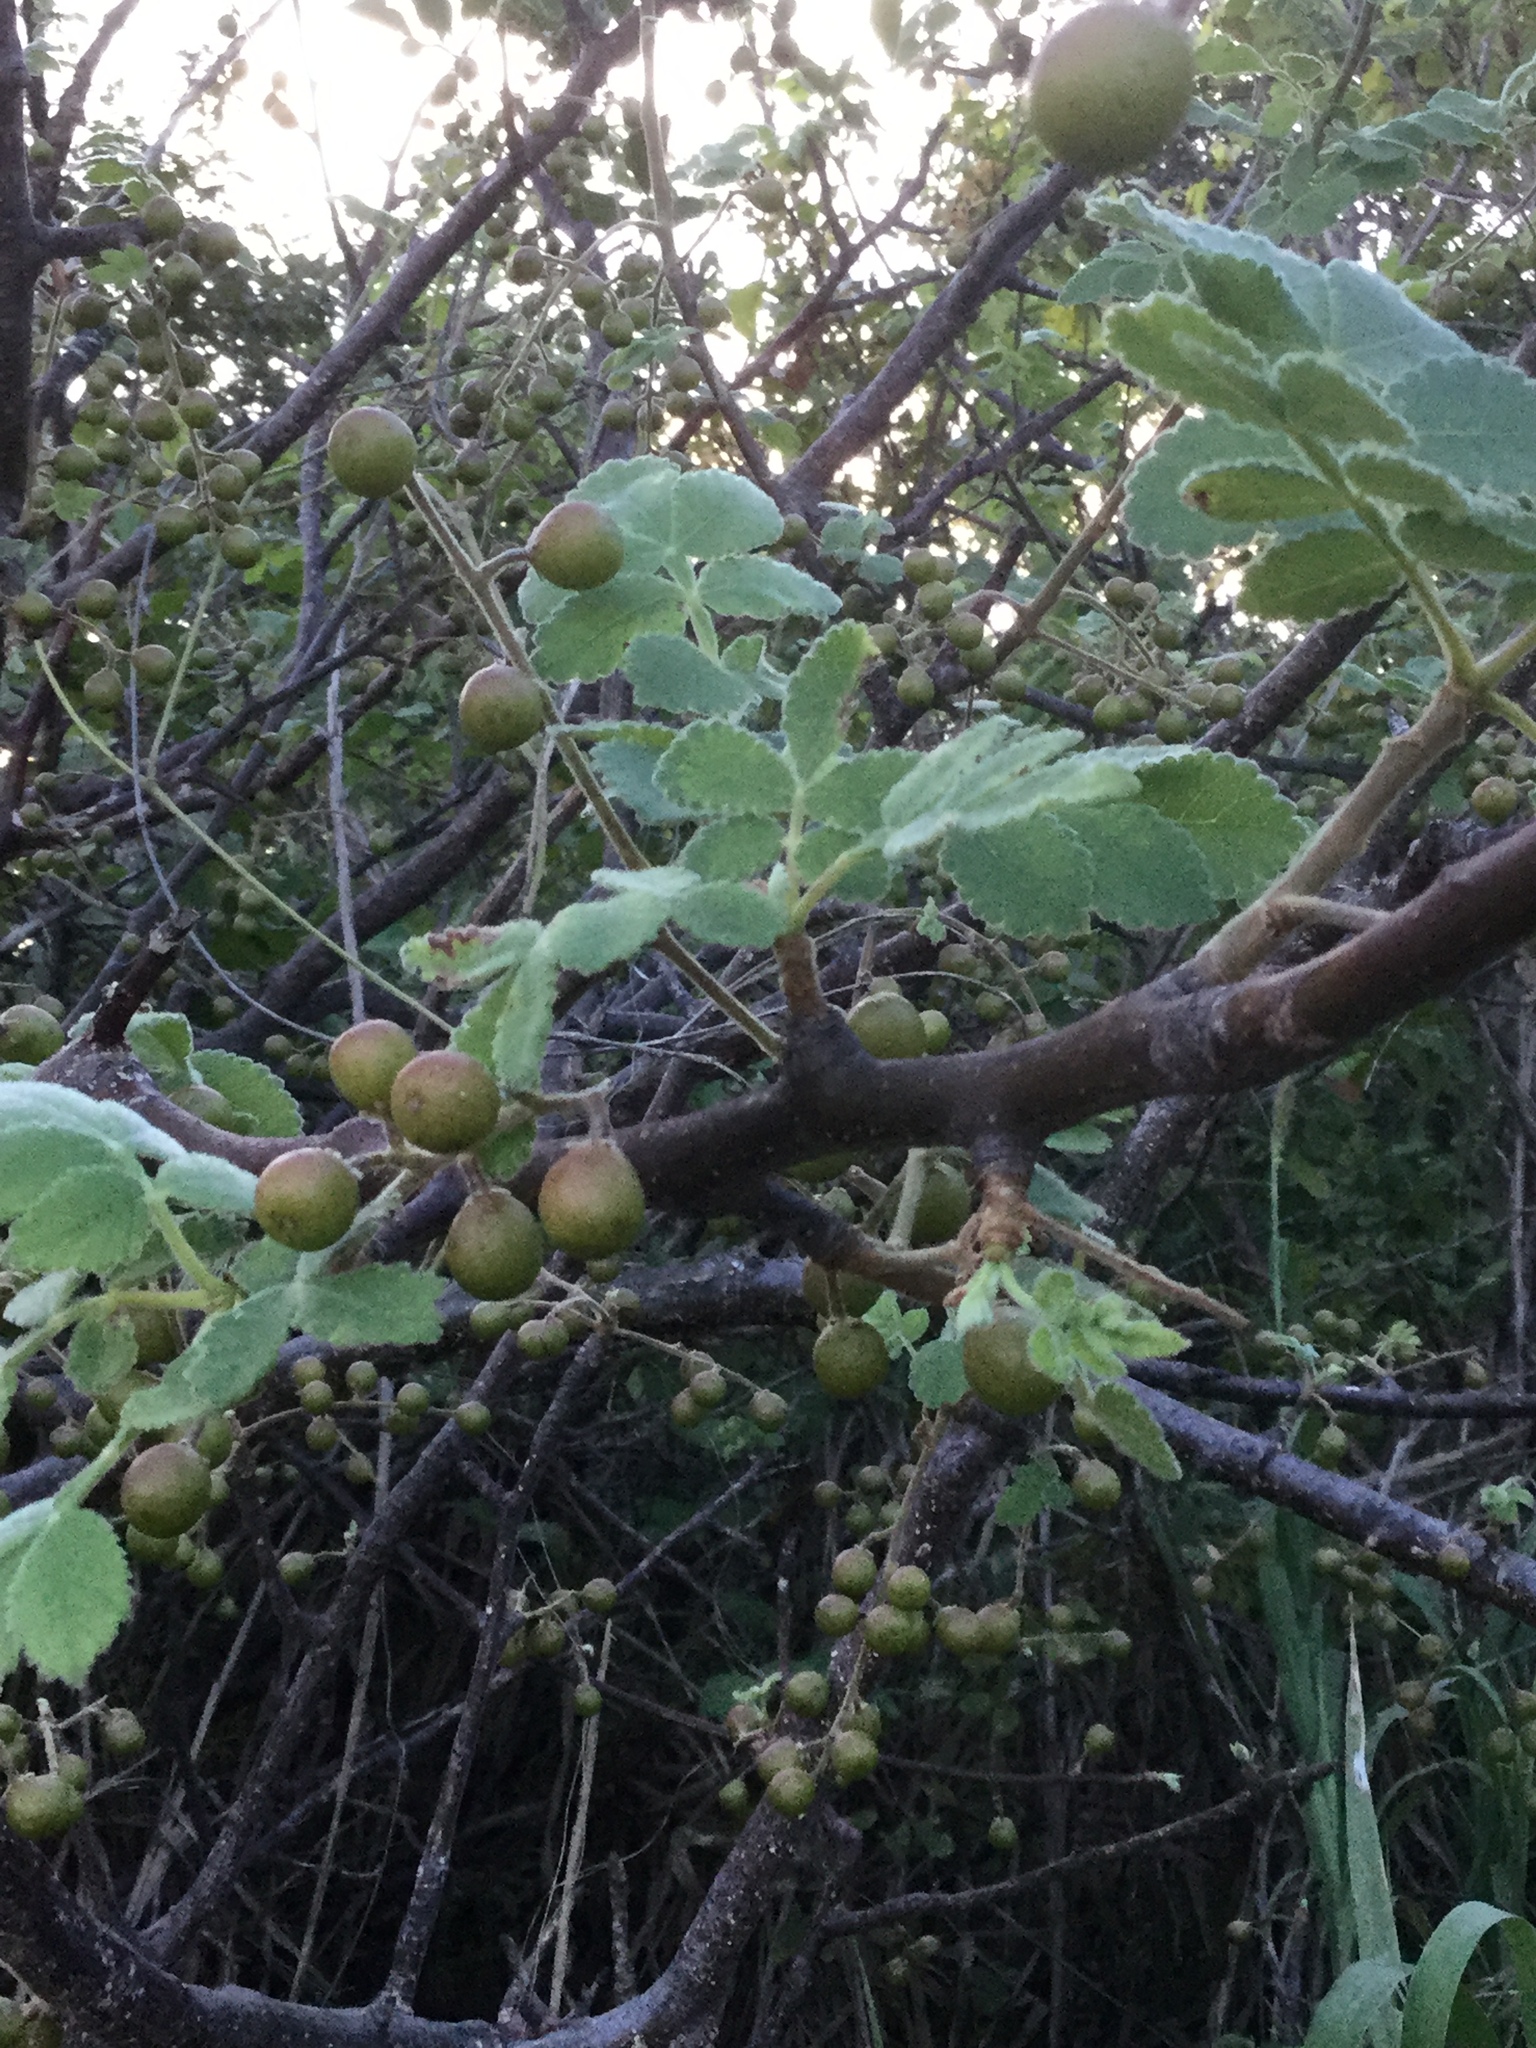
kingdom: Plantae
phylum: Tracheophyta
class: Magnoliopsida
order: Sapindales
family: Burseraceae
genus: Bursera
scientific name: Bursera excelsa
